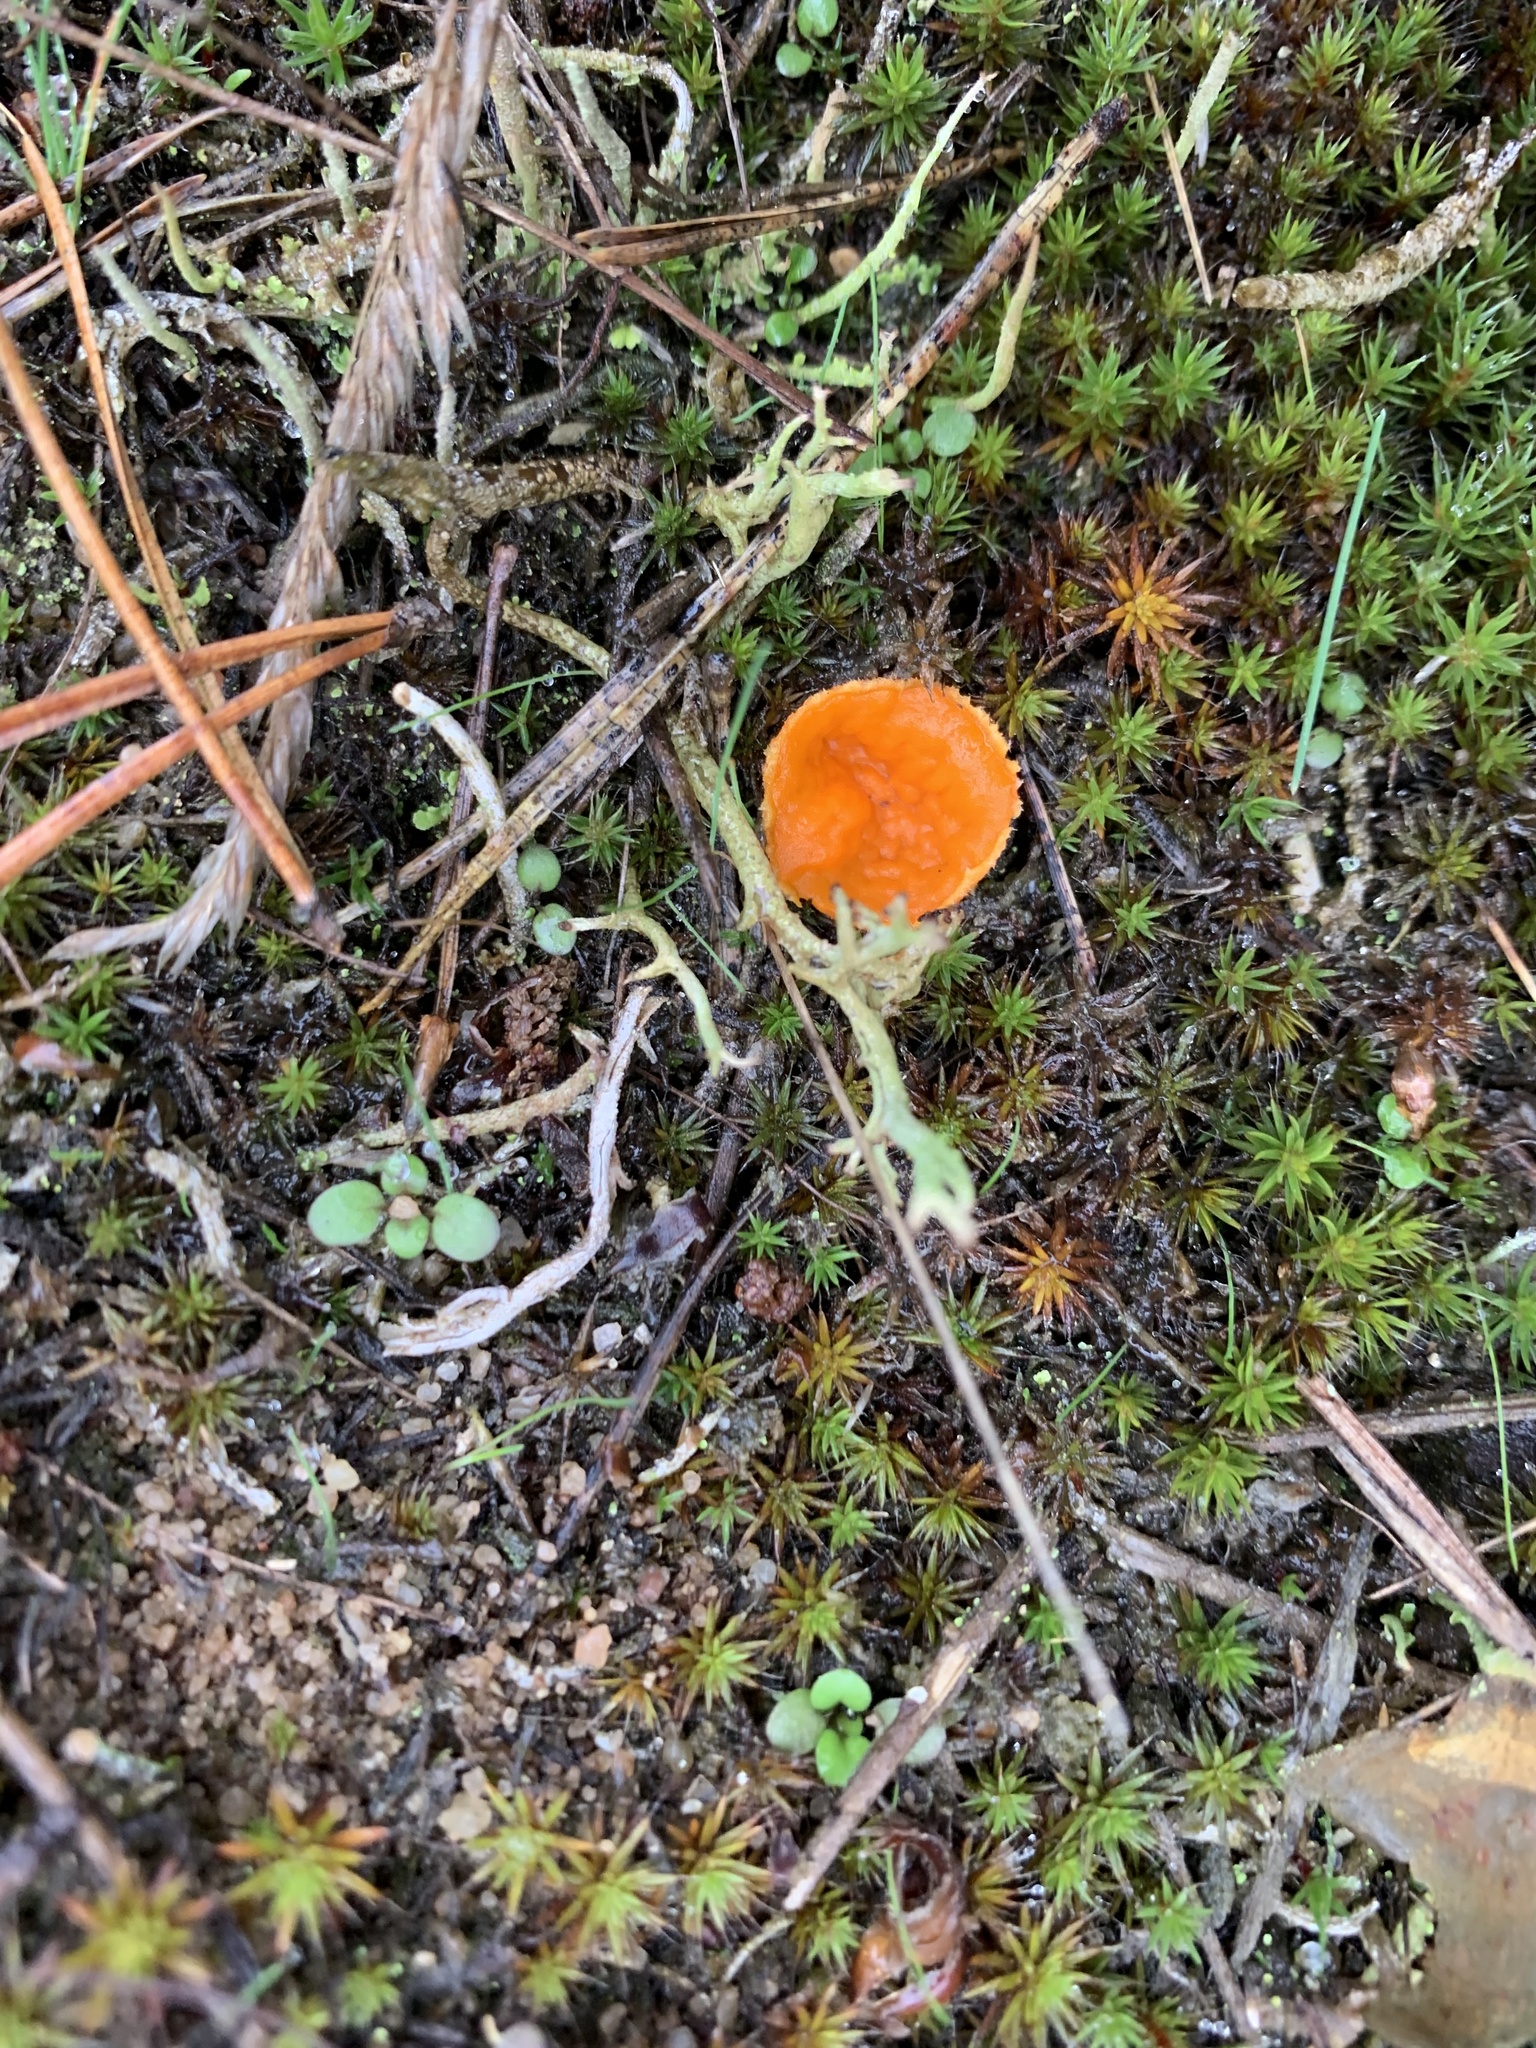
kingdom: Fungi
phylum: Ascomycota
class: Pezizomycetes
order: Pezizales
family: Pyronemataceae
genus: Neottiella
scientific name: Neottiella rutilans
